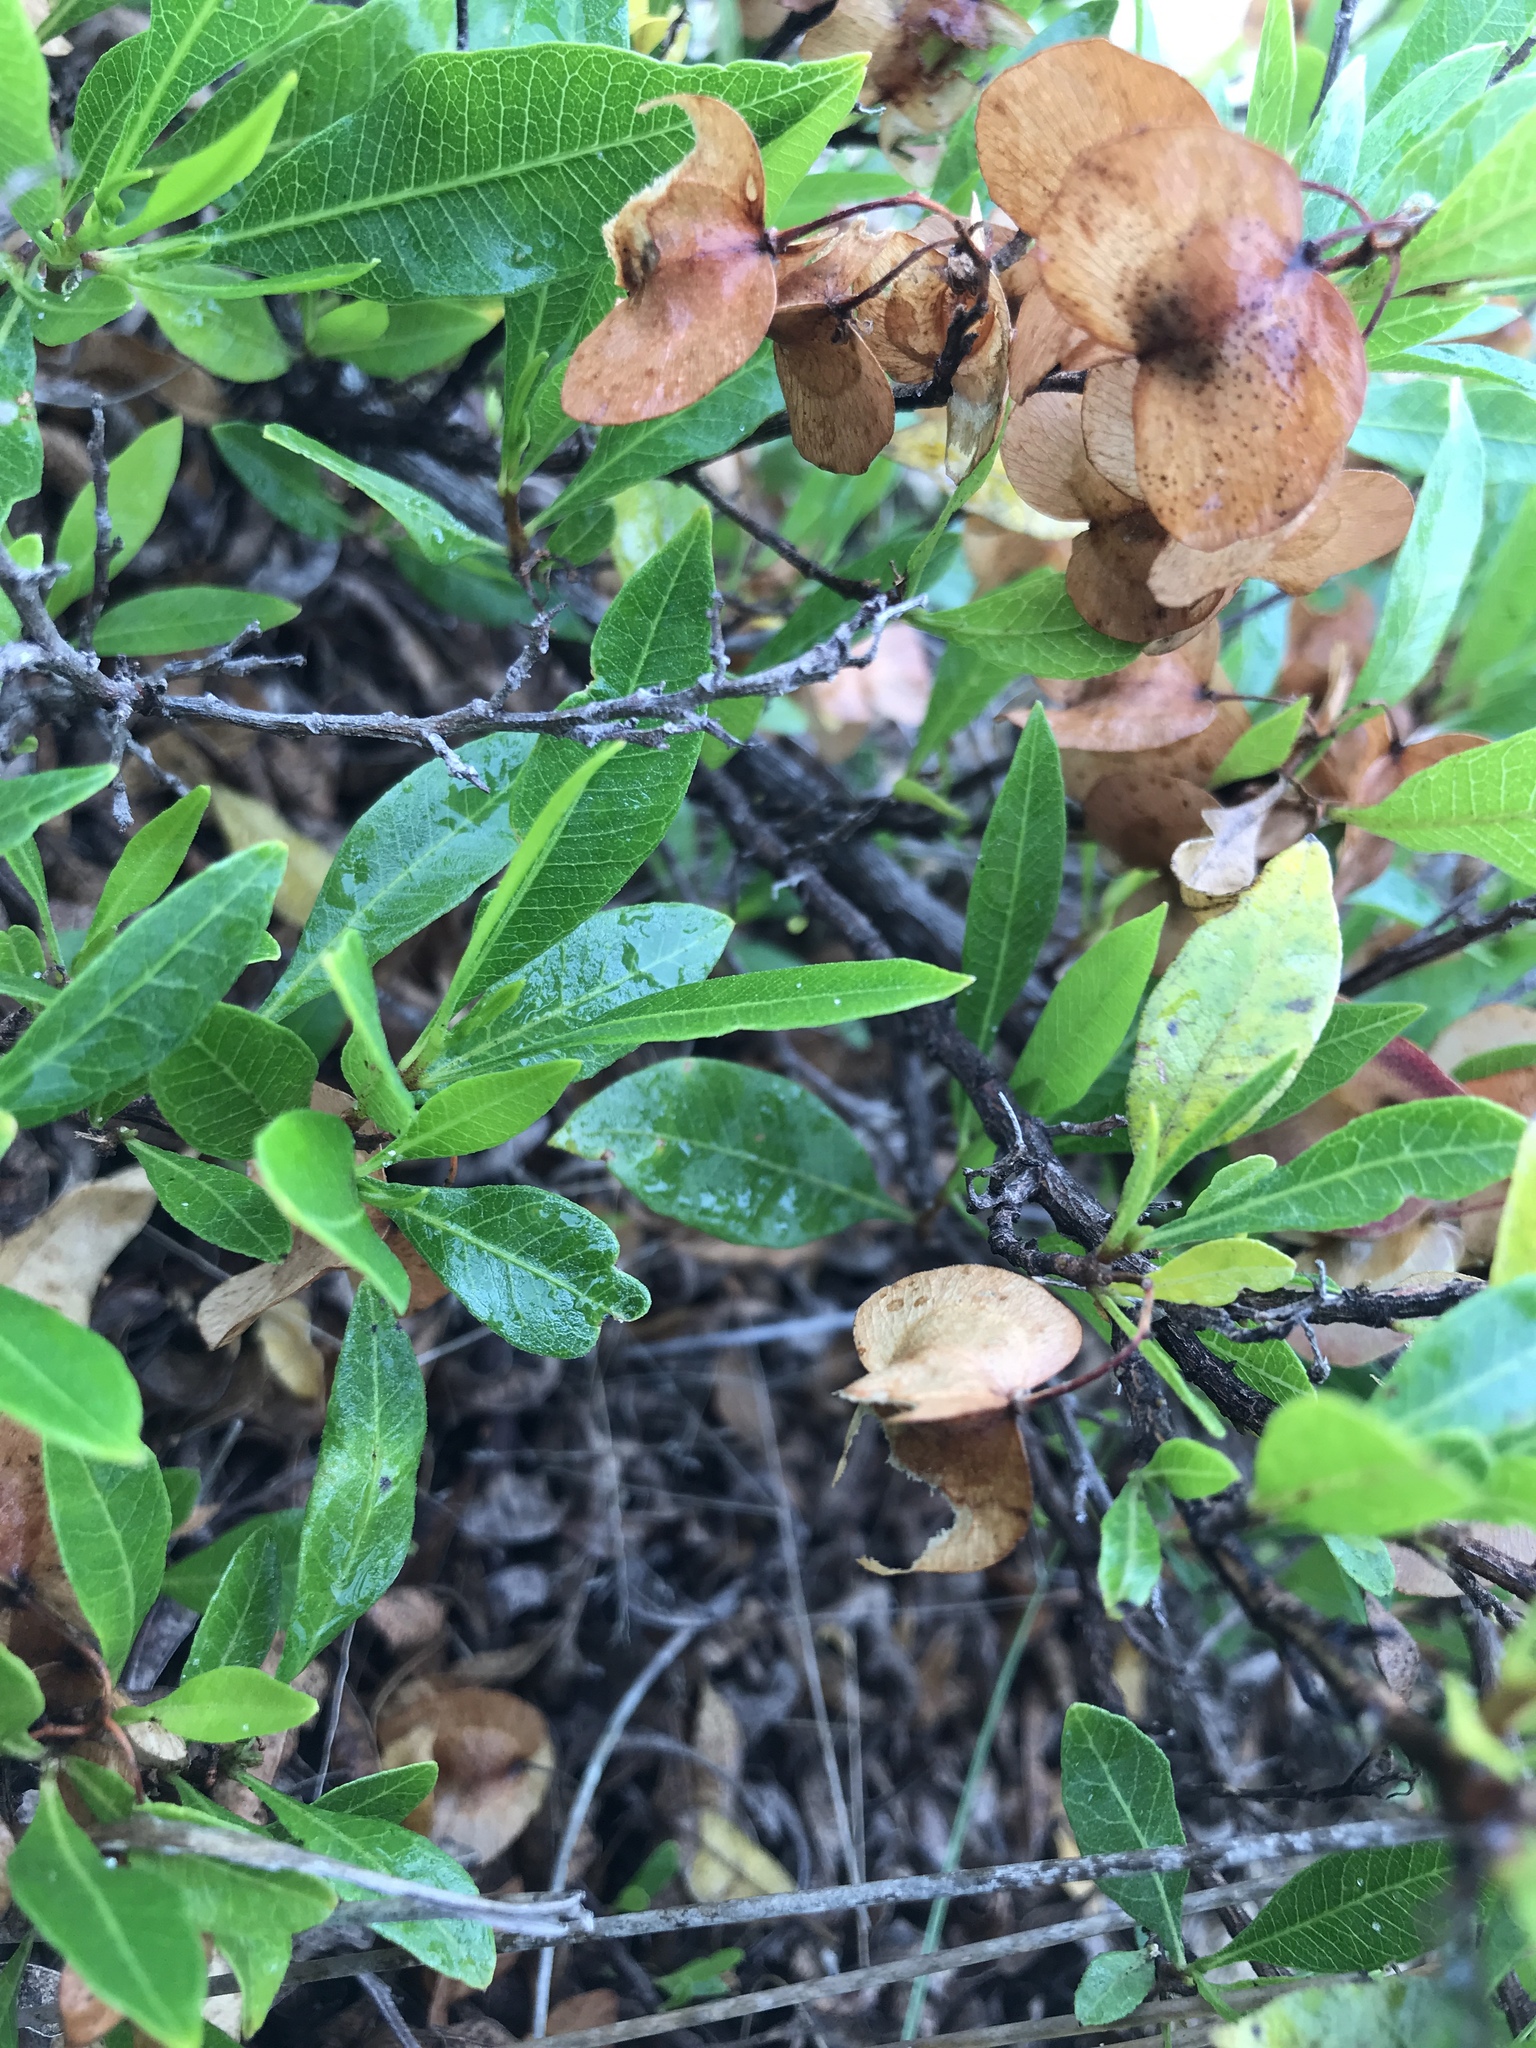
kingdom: Plantae
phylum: Tracheophyta
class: Magnoliopsida
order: Sapindales
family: Sapindaceae
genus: Dodonaea
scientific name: Dodonaea viscosa
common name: Hopbush
